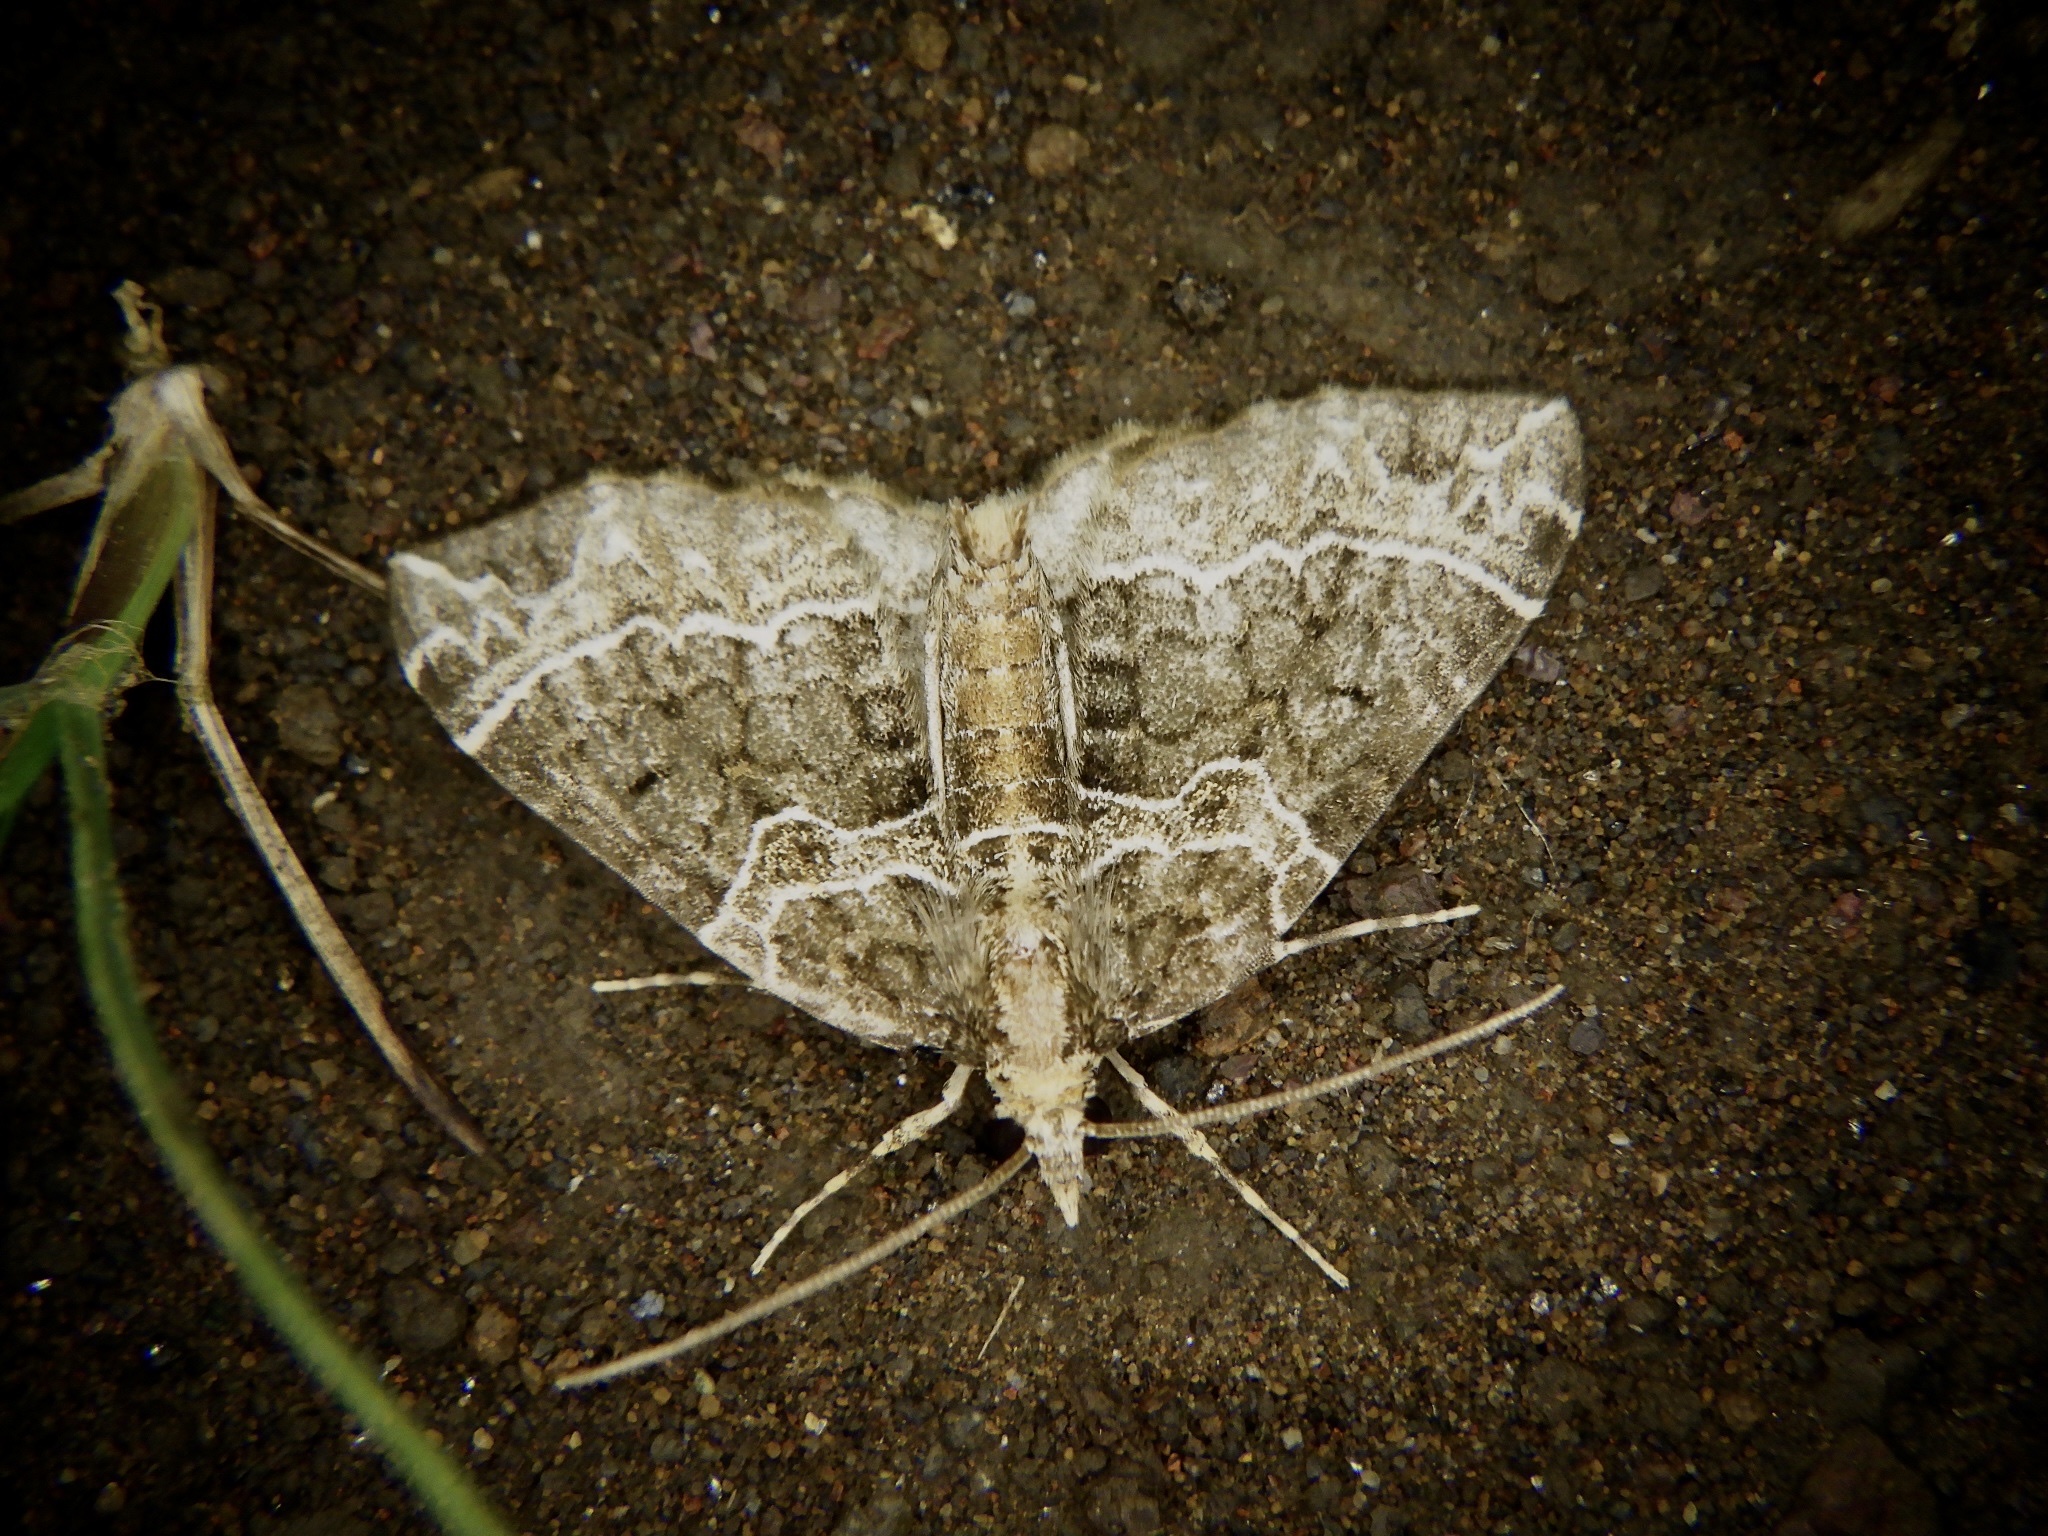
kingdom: Animalia
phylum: Arthropoda
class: Insecta
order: Lepidoptera
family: Geometridae
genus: Ecliptopera
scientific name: Ecliptopera umbrosaria
